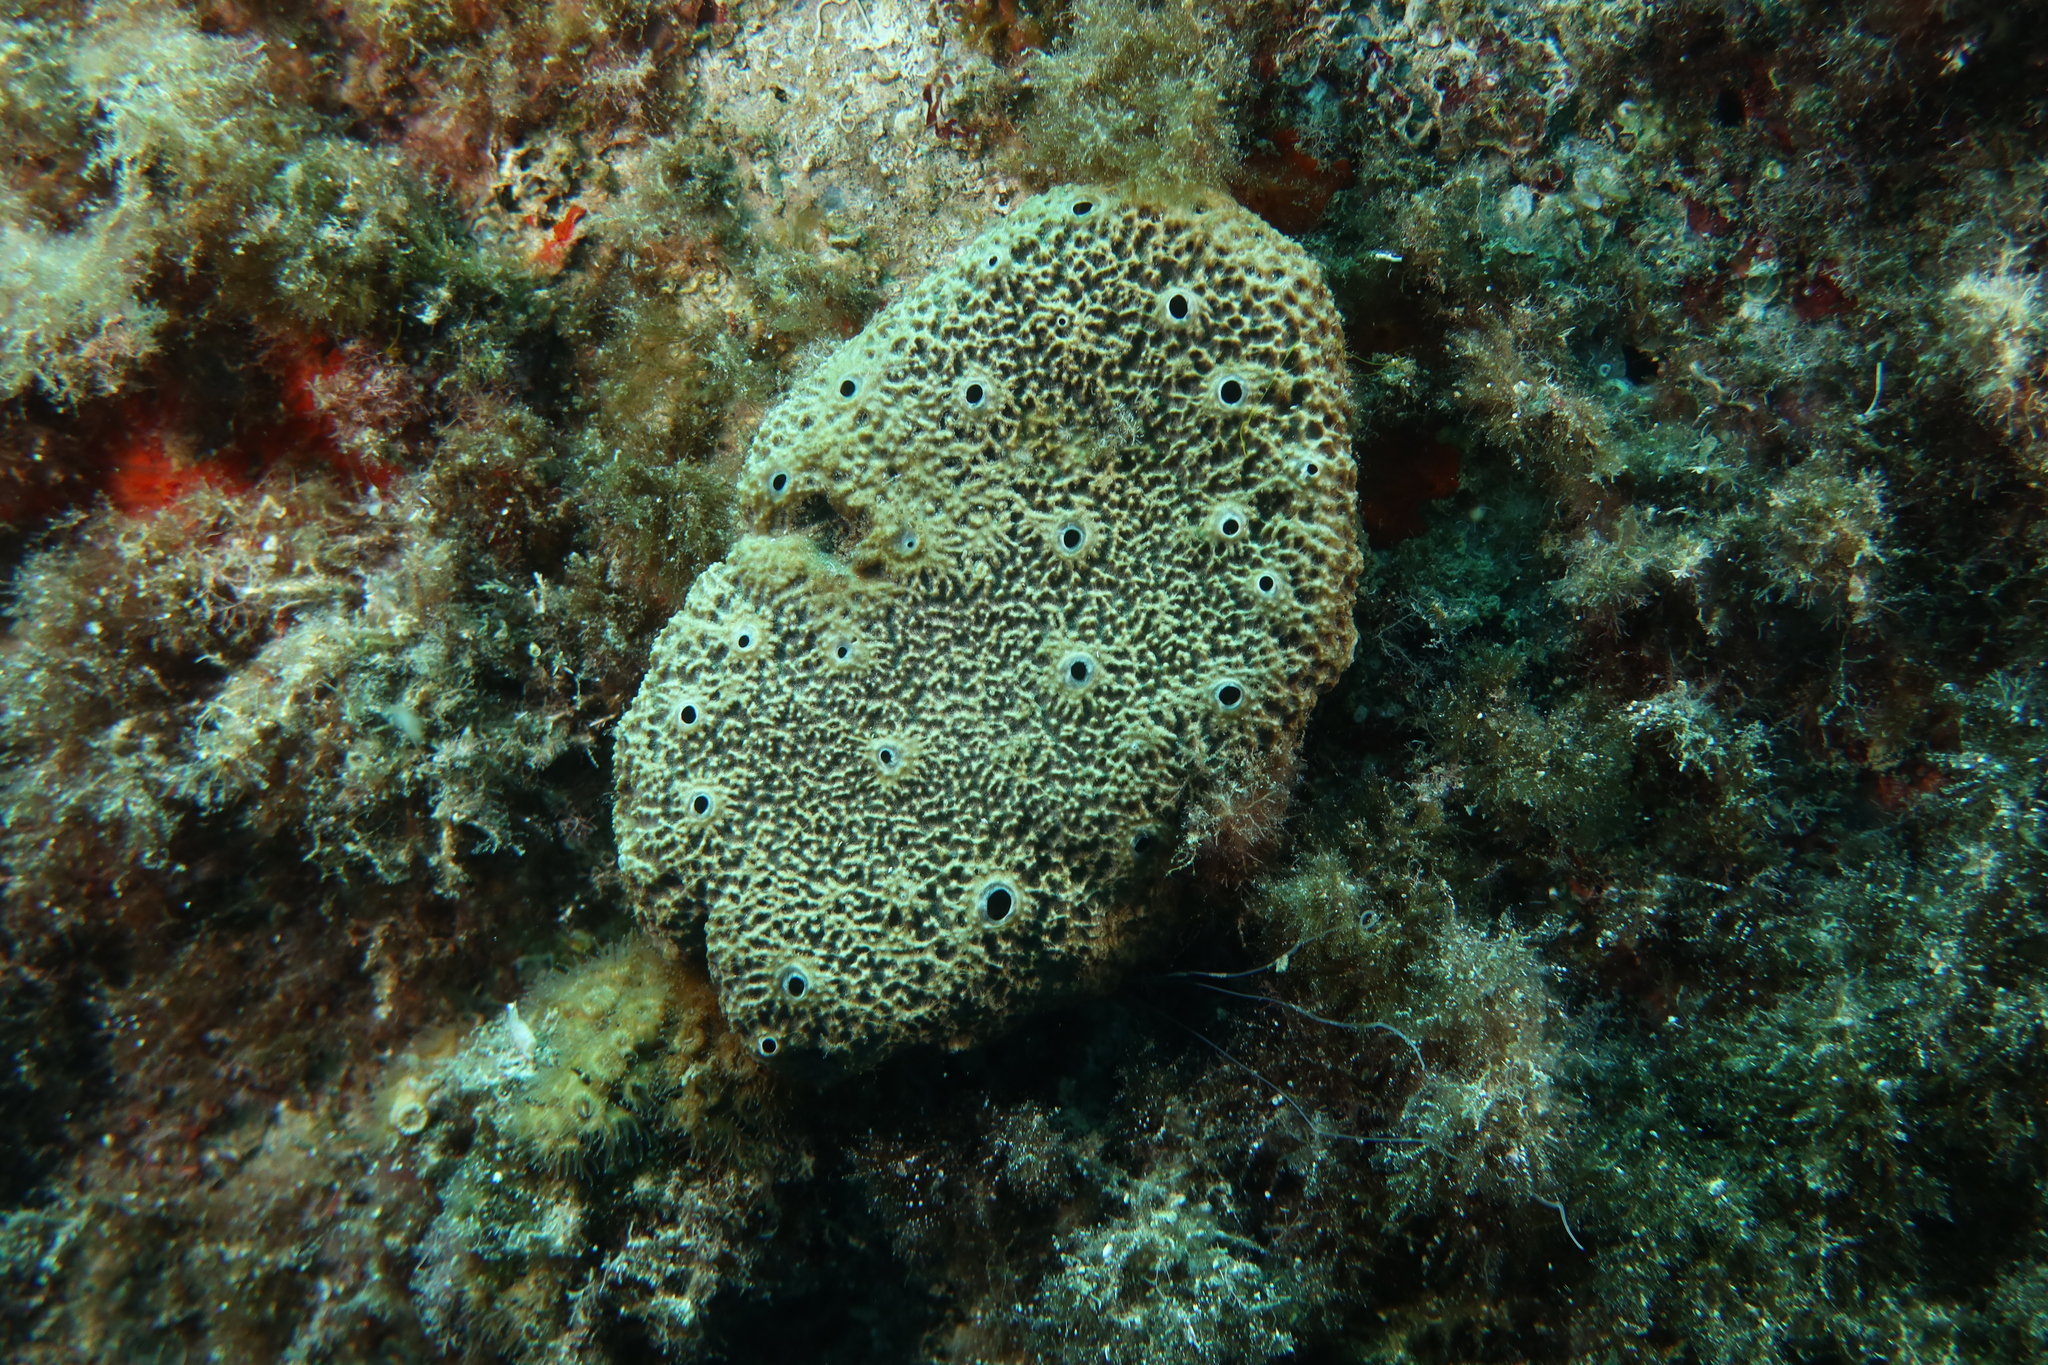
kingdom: Animalia
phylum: Porifera
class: Demospongiae
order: Dictyoceratida
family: Irciniidae
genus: Ircinia
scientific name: Ircinia variabilis
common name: Variable loggerhead sponge
